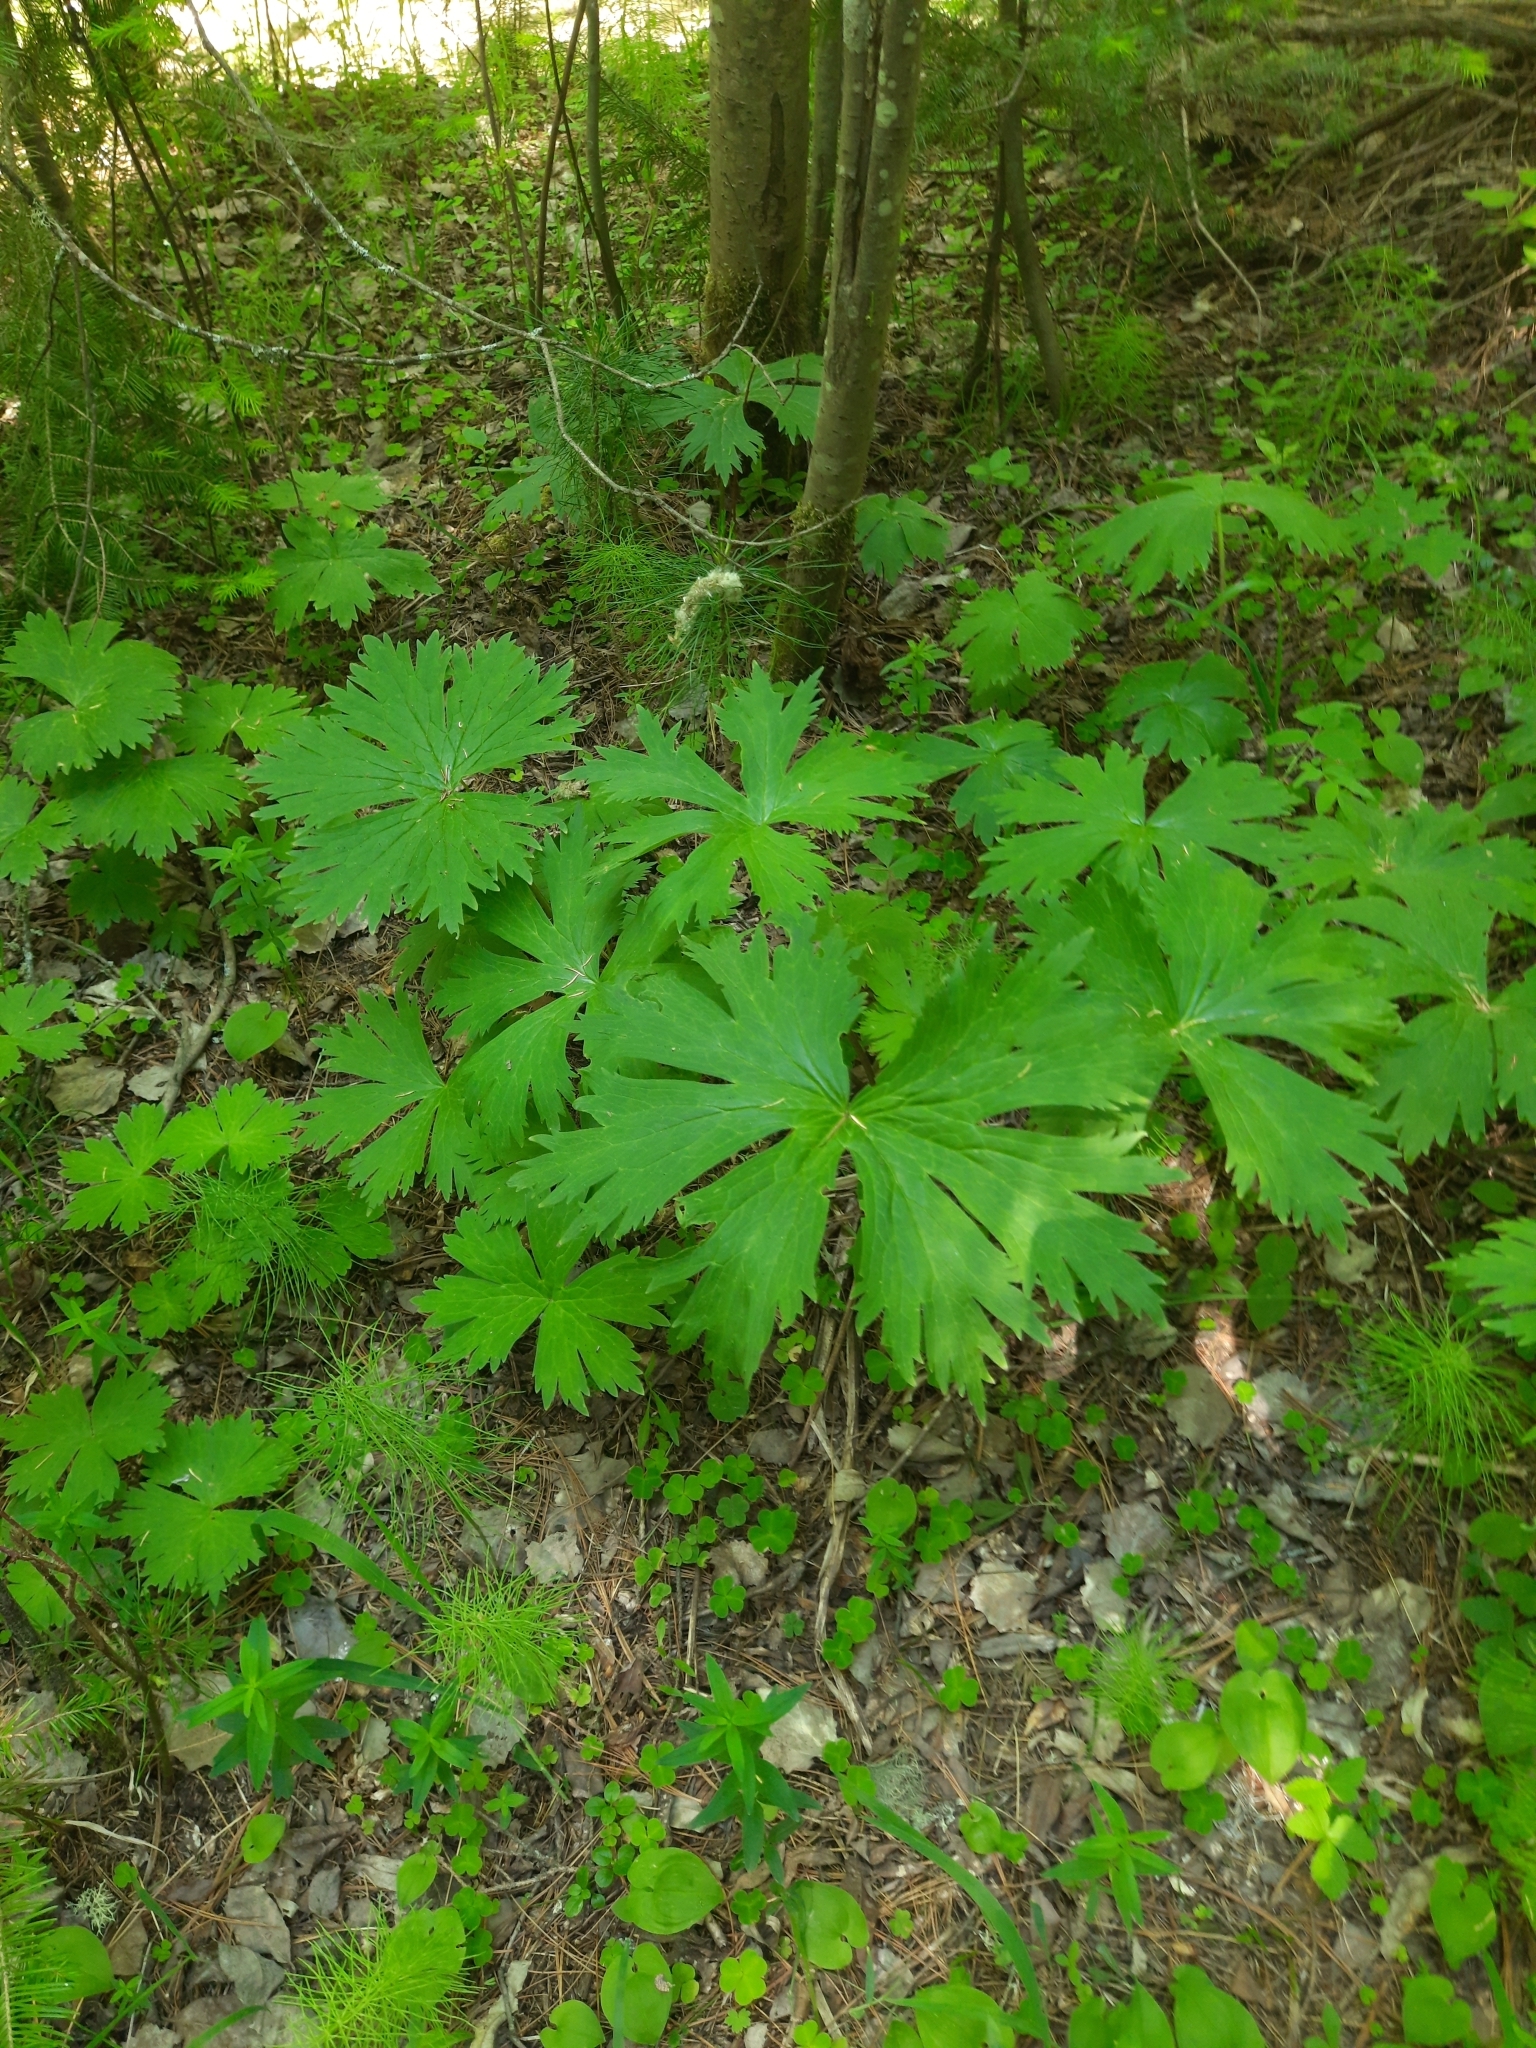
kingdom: Plantae
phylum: Tracheophyta
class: Magnoliopsida
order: Ranunculales
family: Ranunculaceae
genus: Aconitum
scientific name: Aconitum septentrionale
